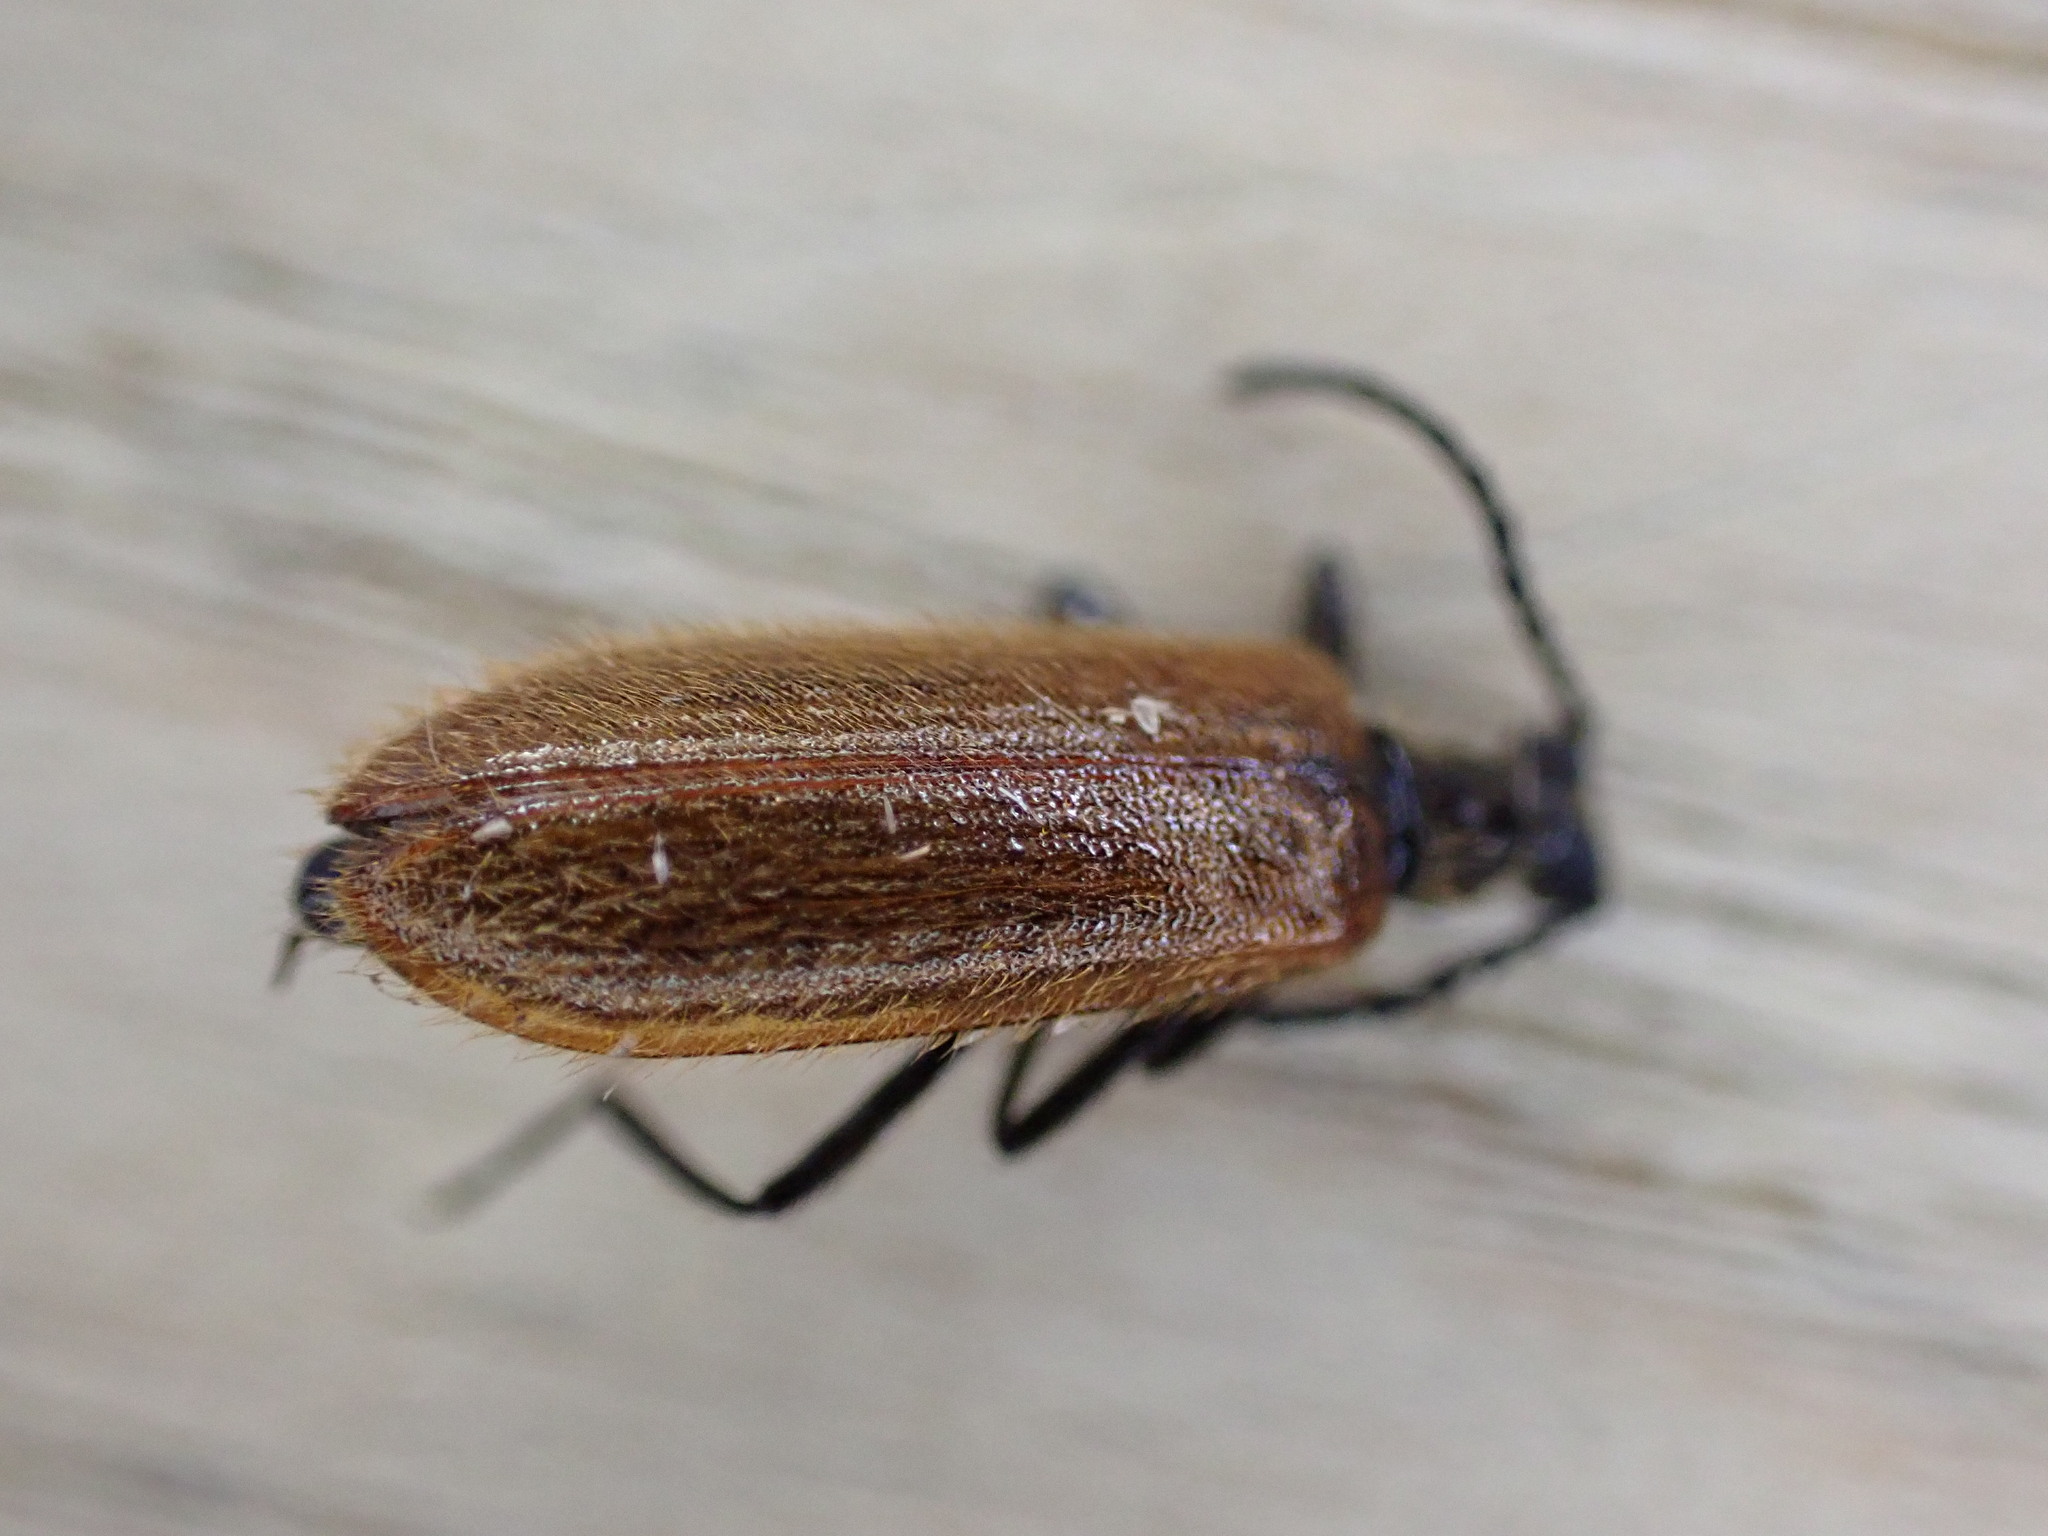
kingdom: Animalia
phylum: Arthropoda
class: Insecta
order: Coleoptera
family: Tenebrionidae
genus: Lagria
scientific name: Lagria hirta
